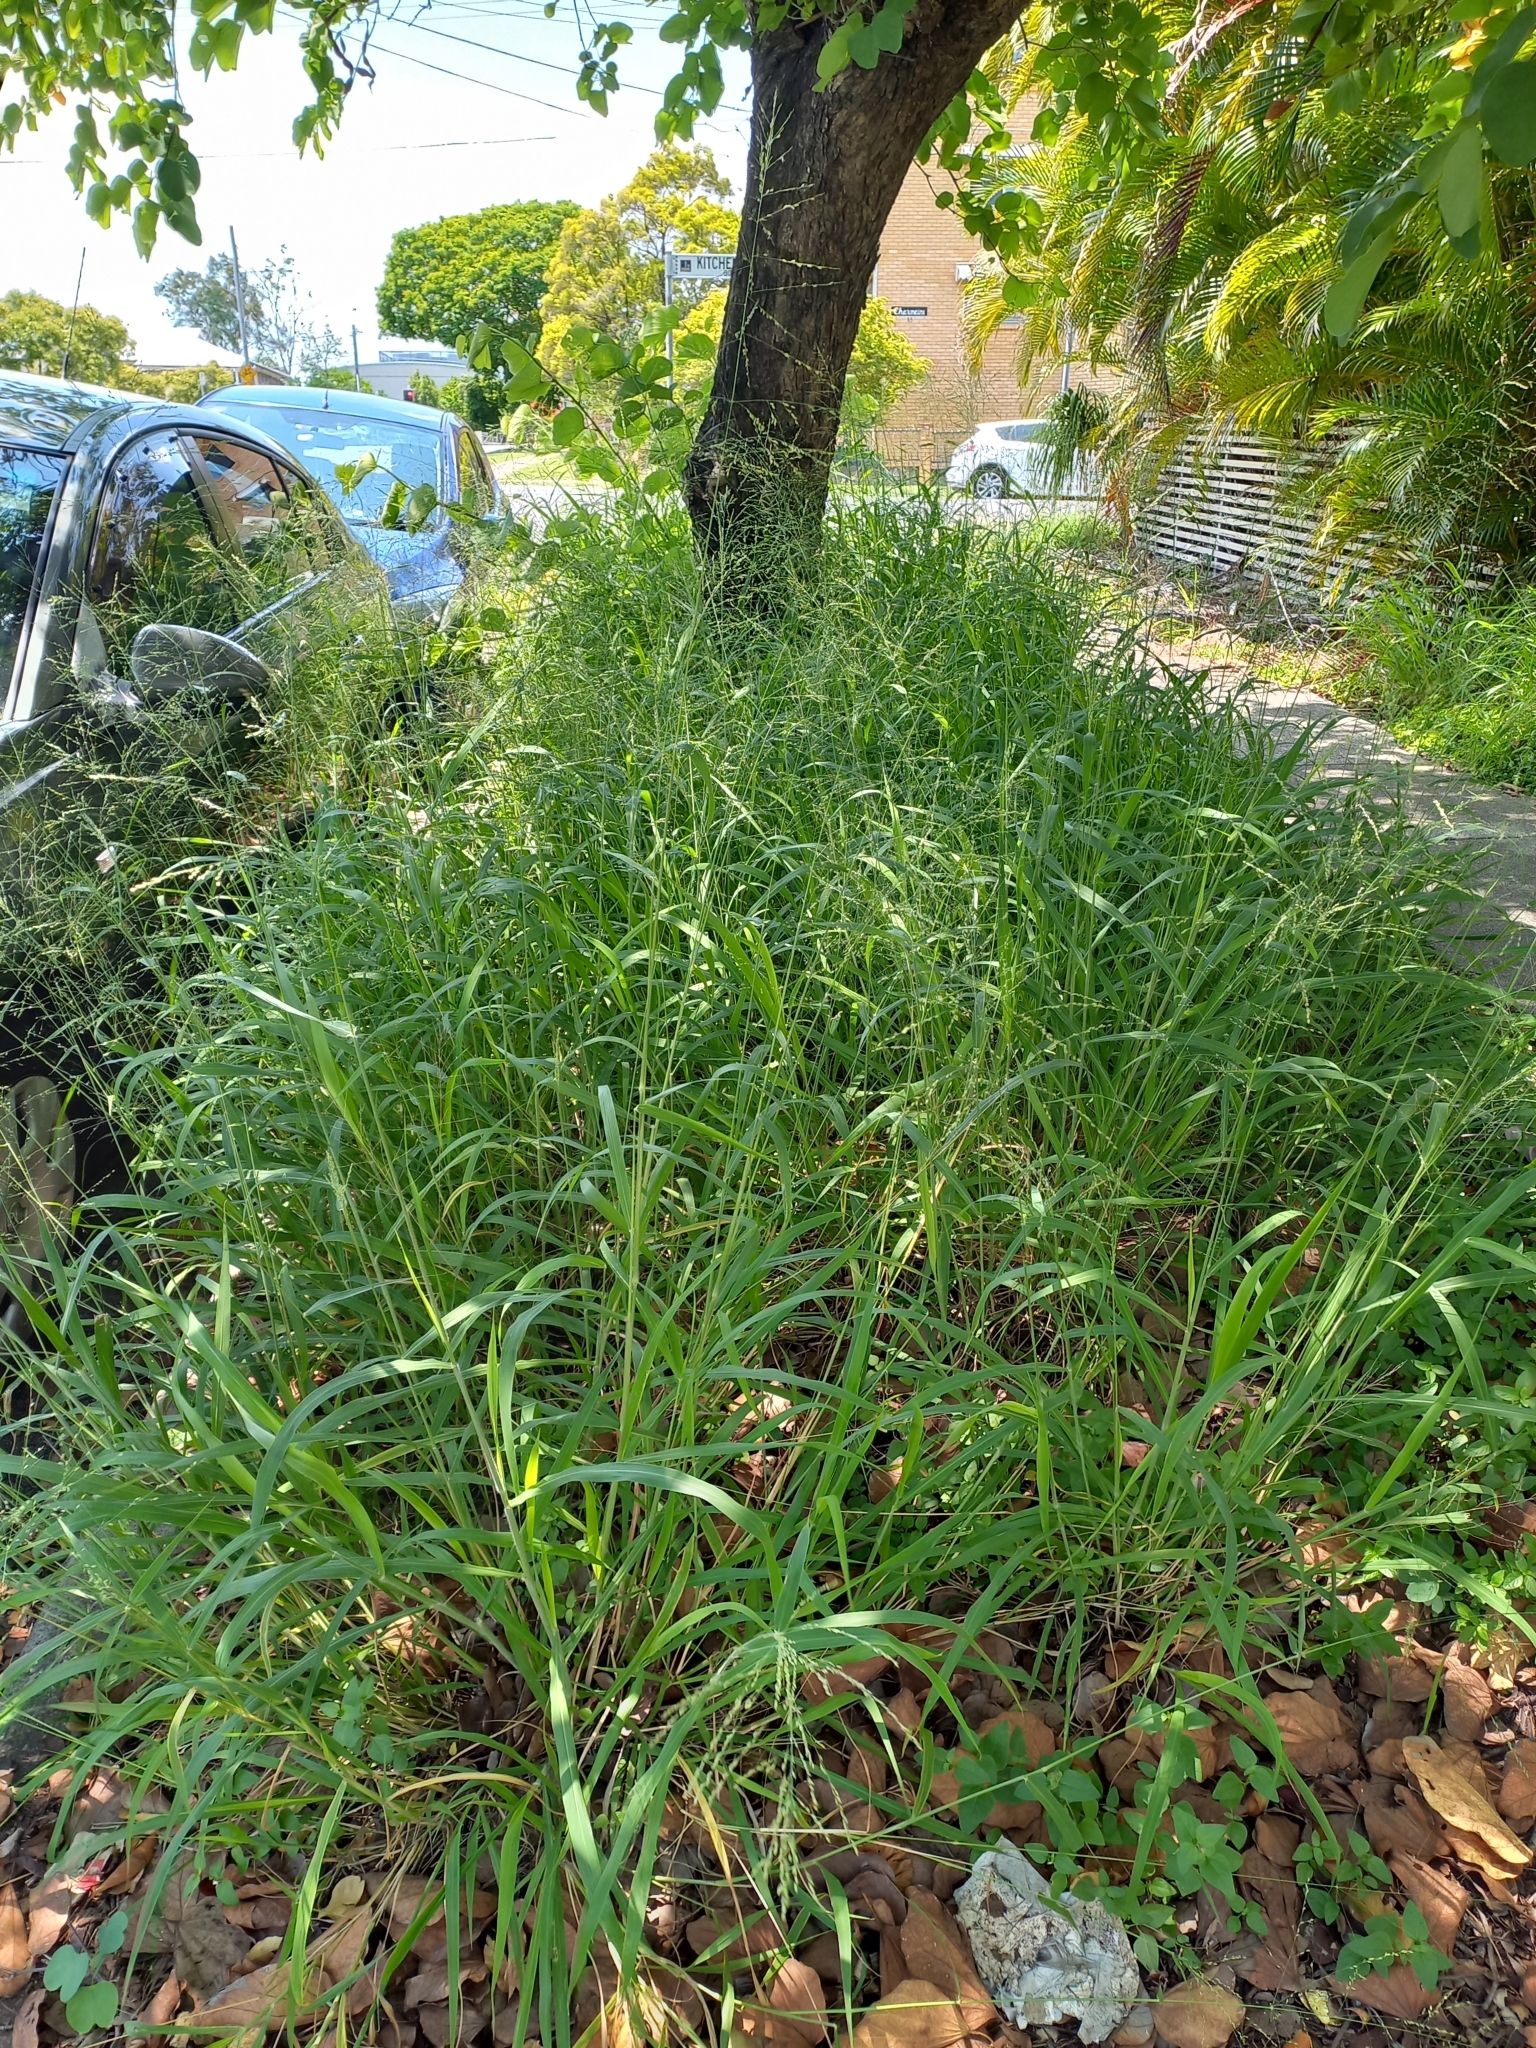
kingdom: Plantae
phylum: Tracheophyta
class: Liliopsida
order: Poales
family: Poaceae
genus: Megathyrsus
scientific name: Megathyrsus maximus
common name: Guineagrass
